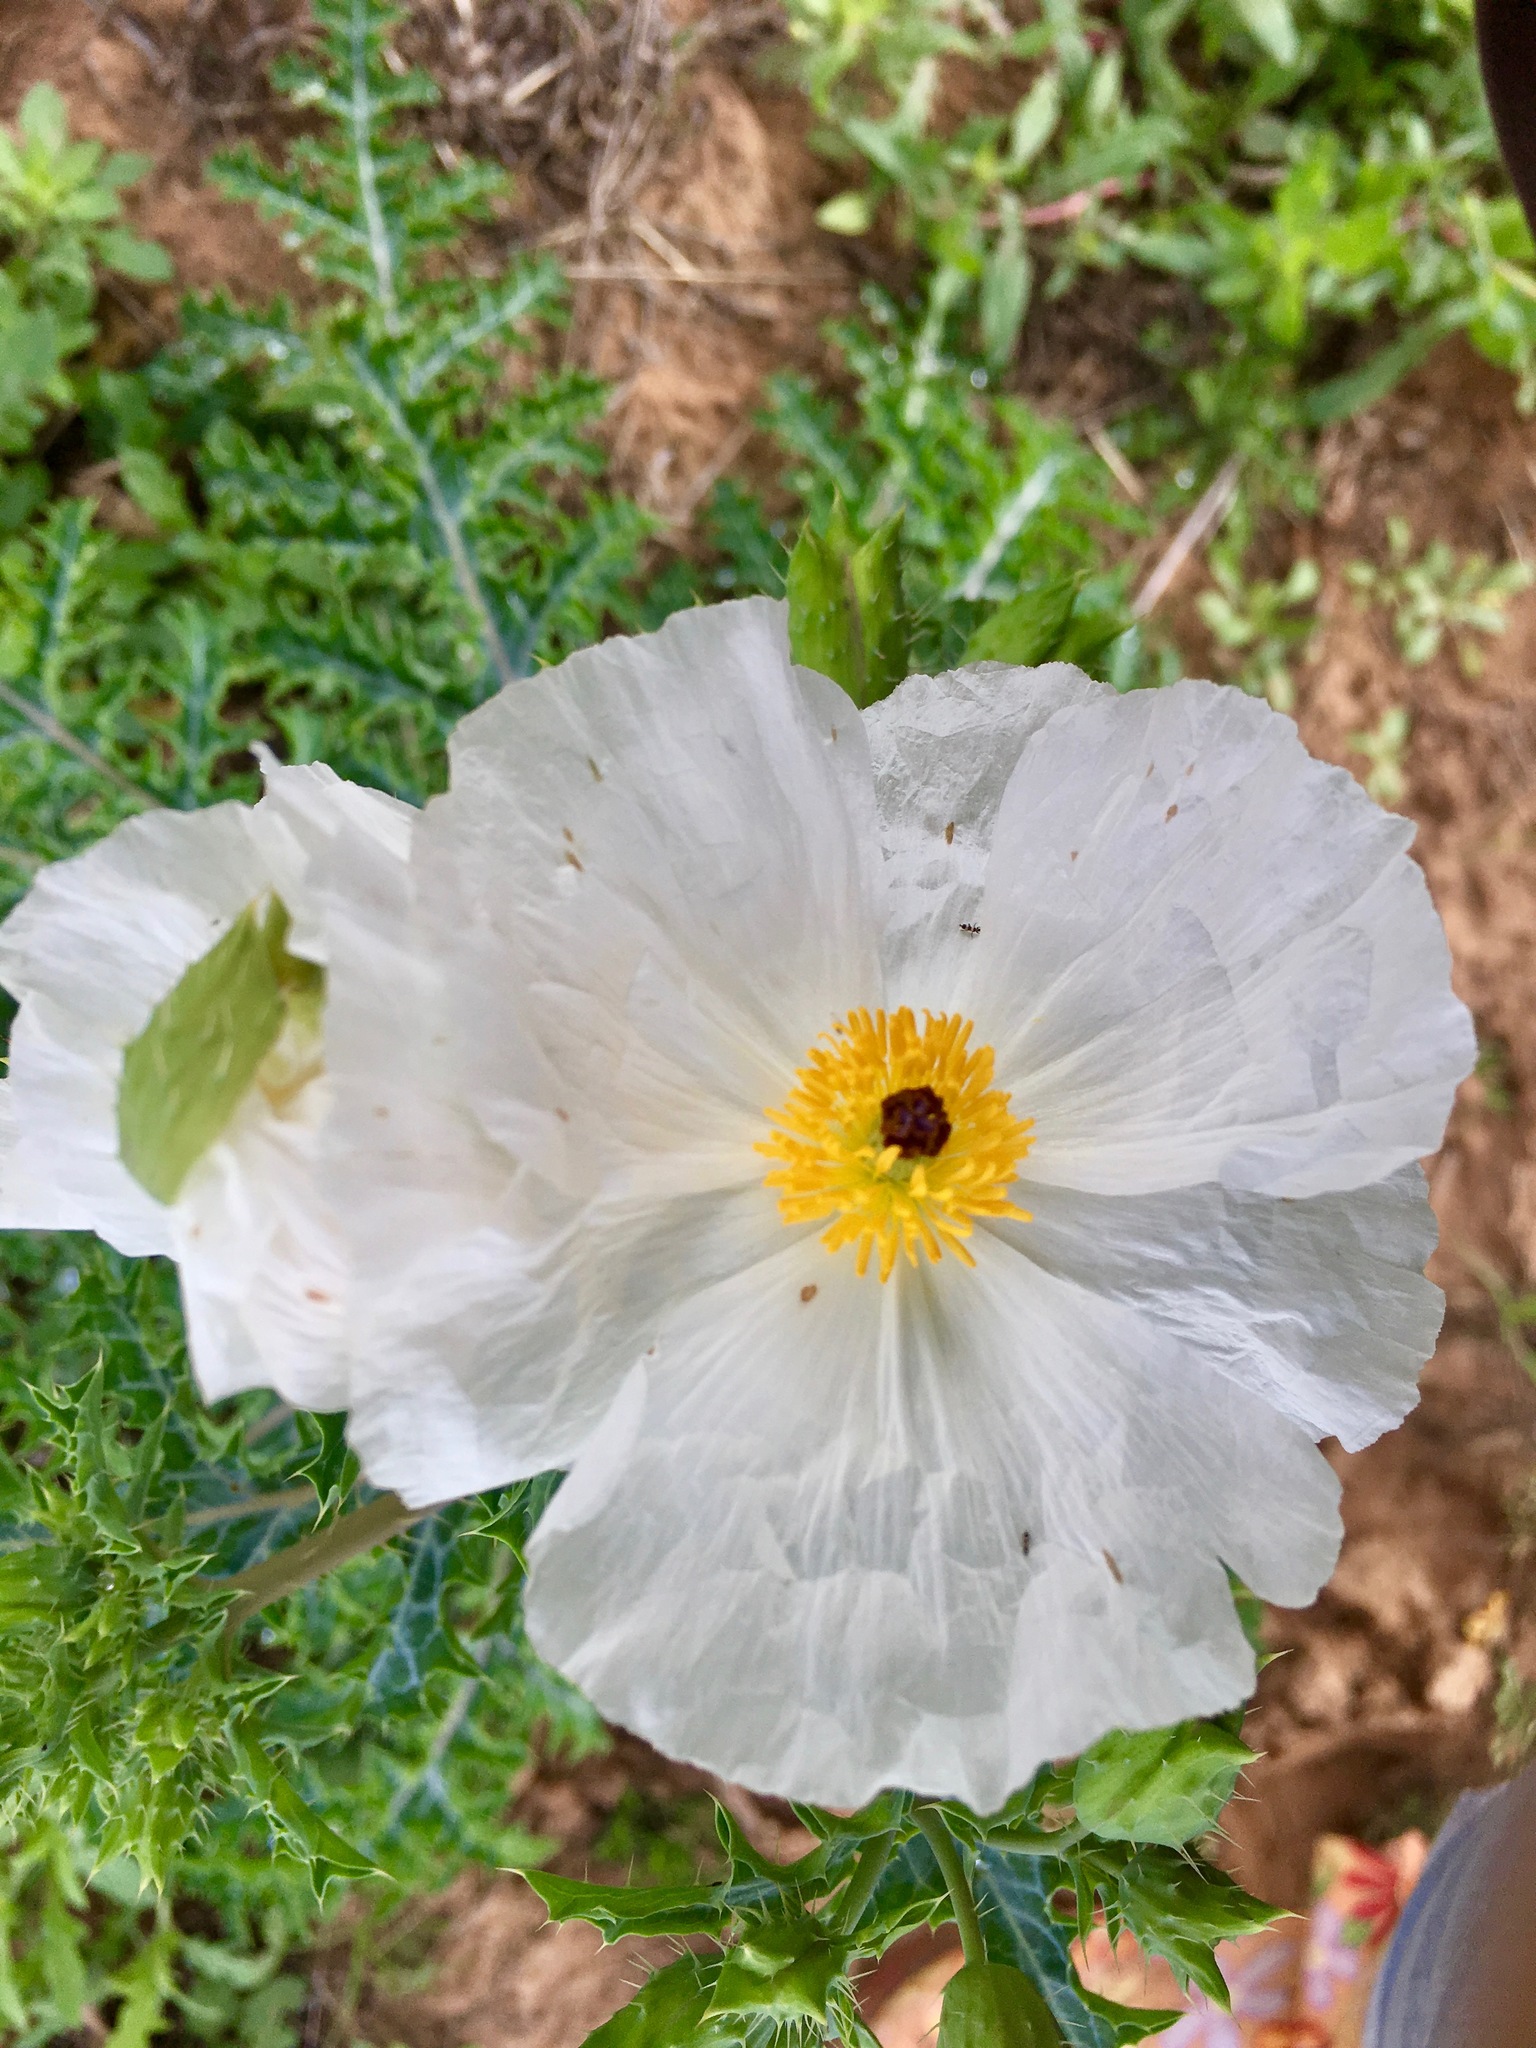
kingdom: Plantae
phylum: Tracheophyta
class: Magnoliopsida
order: Ranunculales
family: Papaveraceae
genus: Argemone
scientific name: Argemone albiflora
